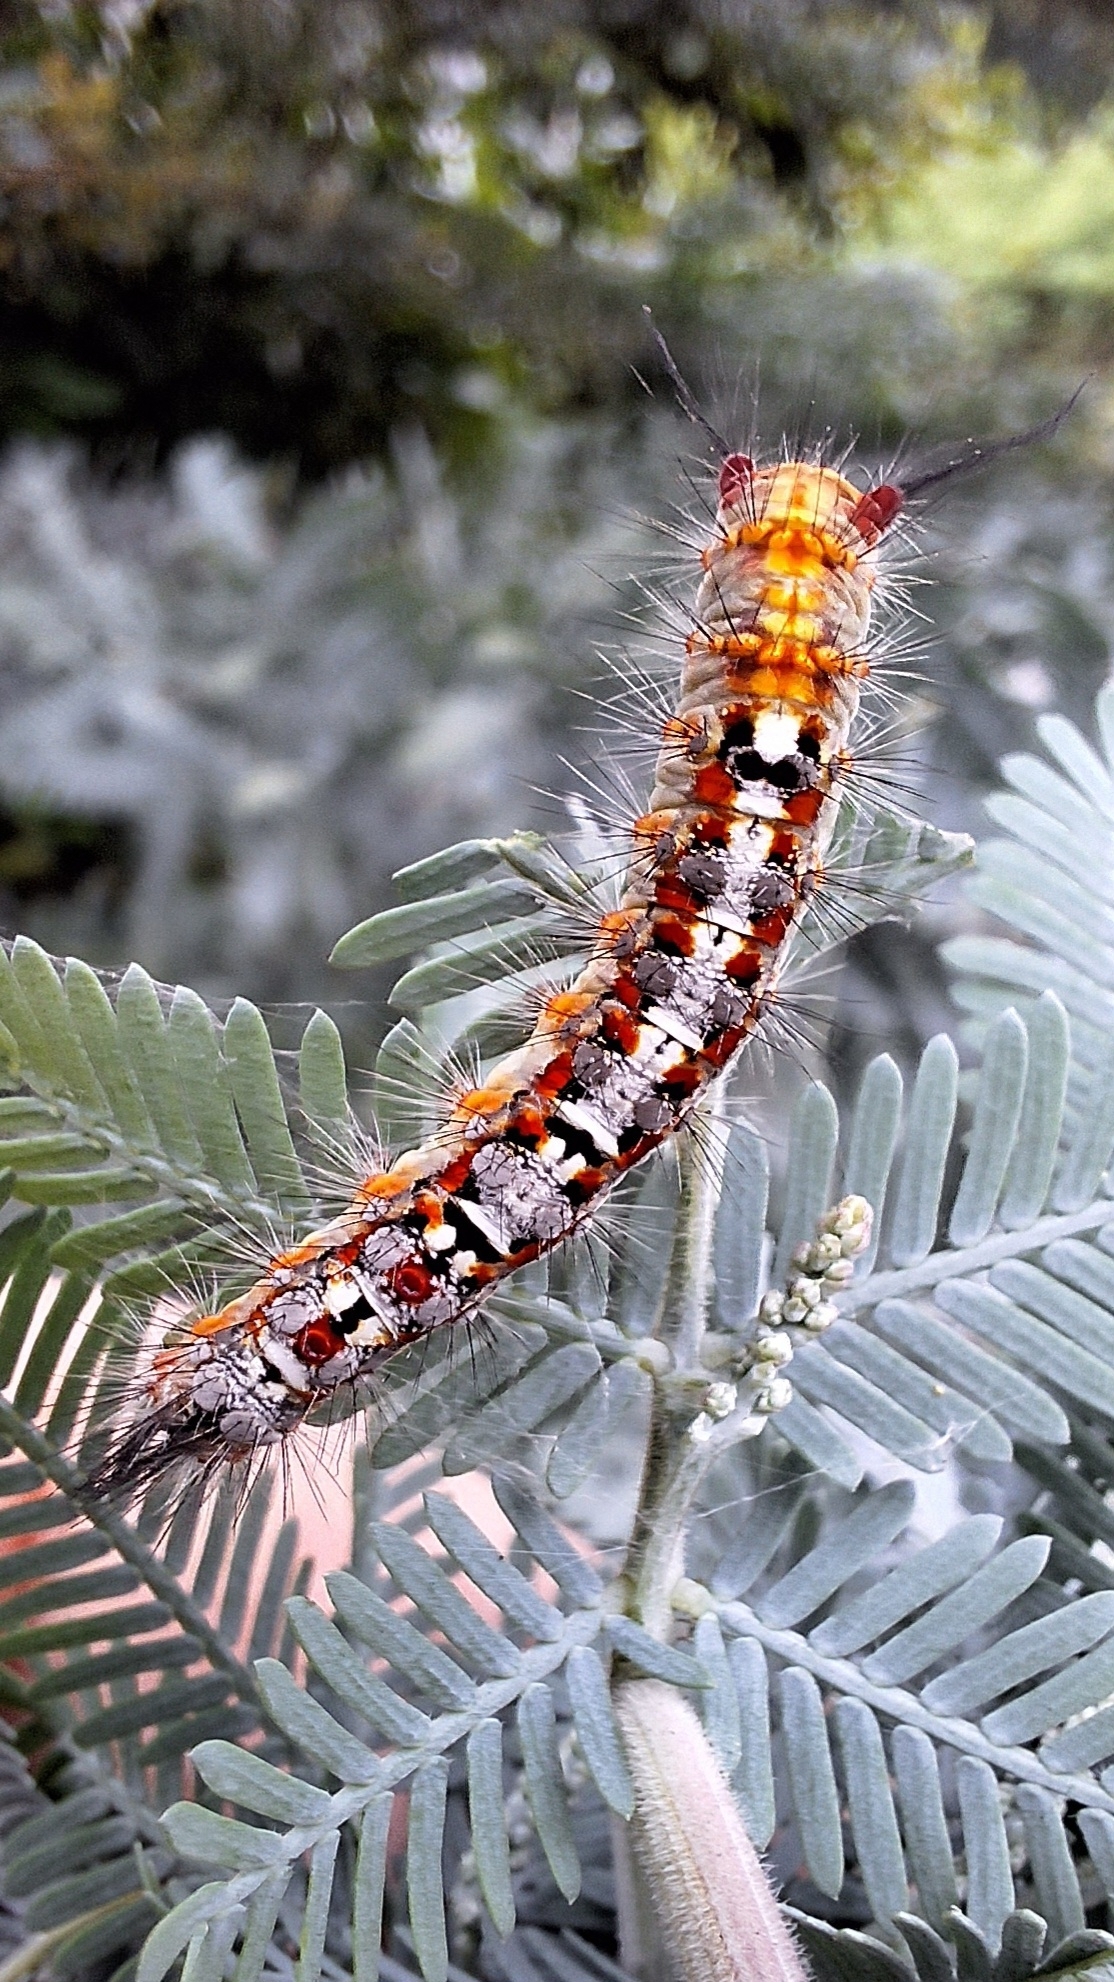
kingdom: Animalia
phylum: Arthropoda
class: Insecta
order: Lepidoptera
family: Erebidae
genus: Acyphas
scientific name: Acyphas semiochrea
